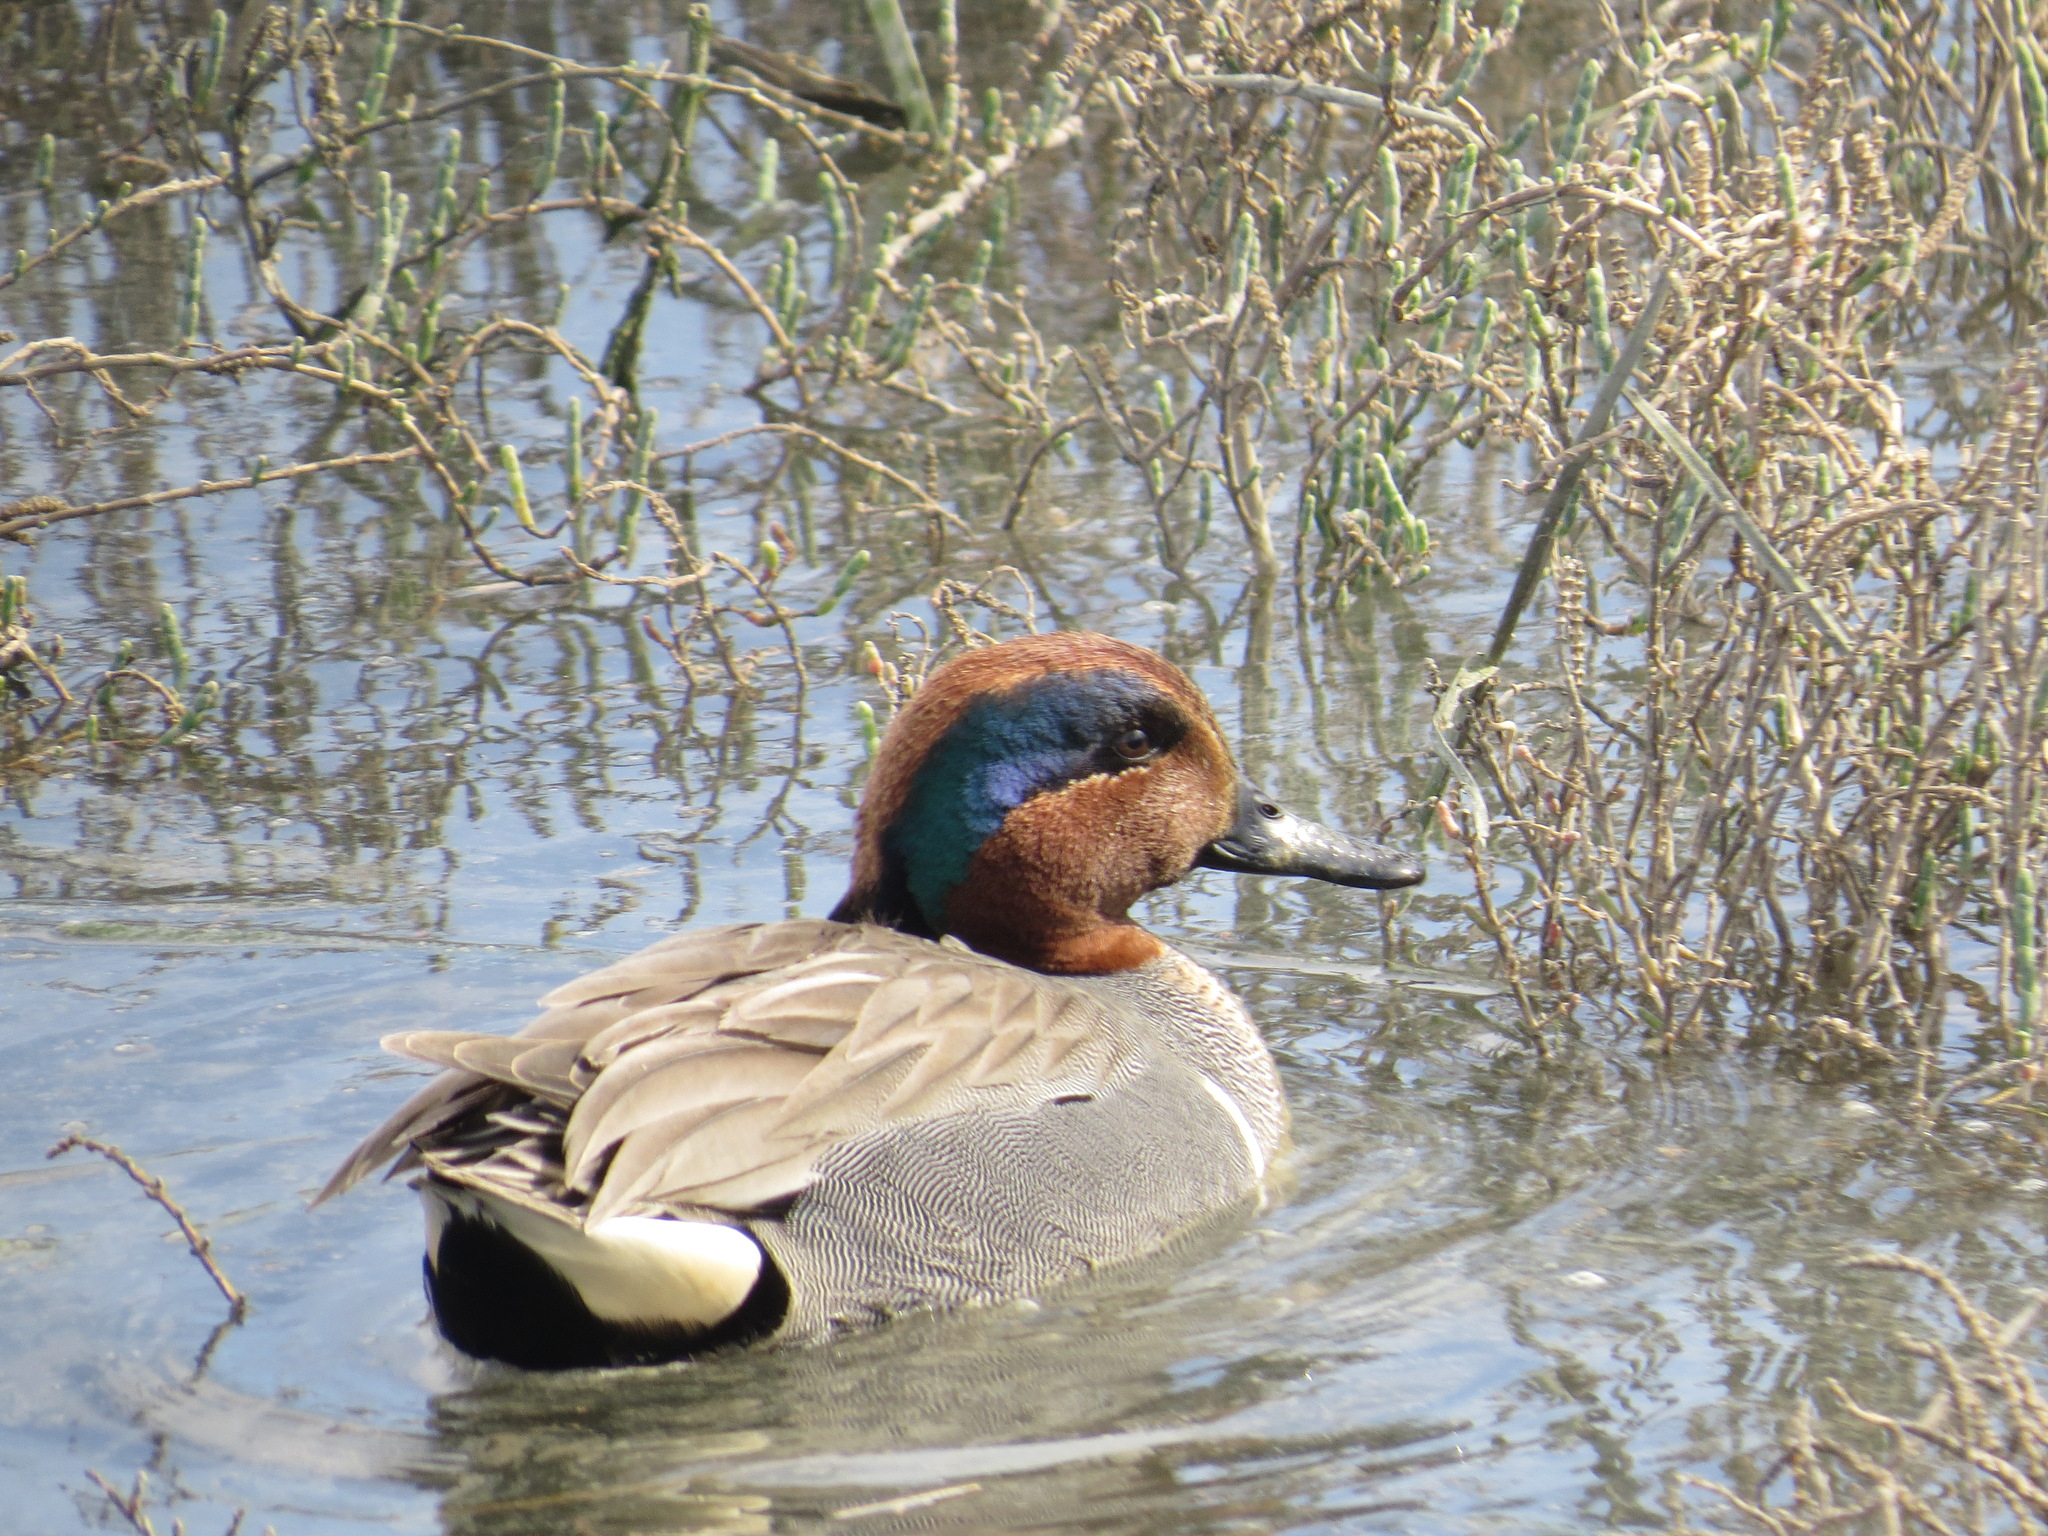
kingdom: Animalia
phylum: Chordata
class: Aves
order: Anseriformes
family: Anatidae
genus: Anas
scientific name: Anas crecca
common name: Eurasian teal
